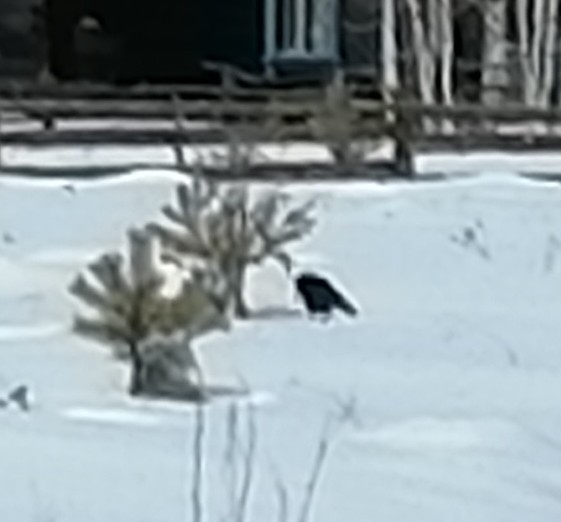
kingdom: Animalia
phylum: Chordata
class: Aves
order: Passeriformes
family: Corvidae
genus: Corvus
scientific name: Corvus corone
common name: Carrion crow
